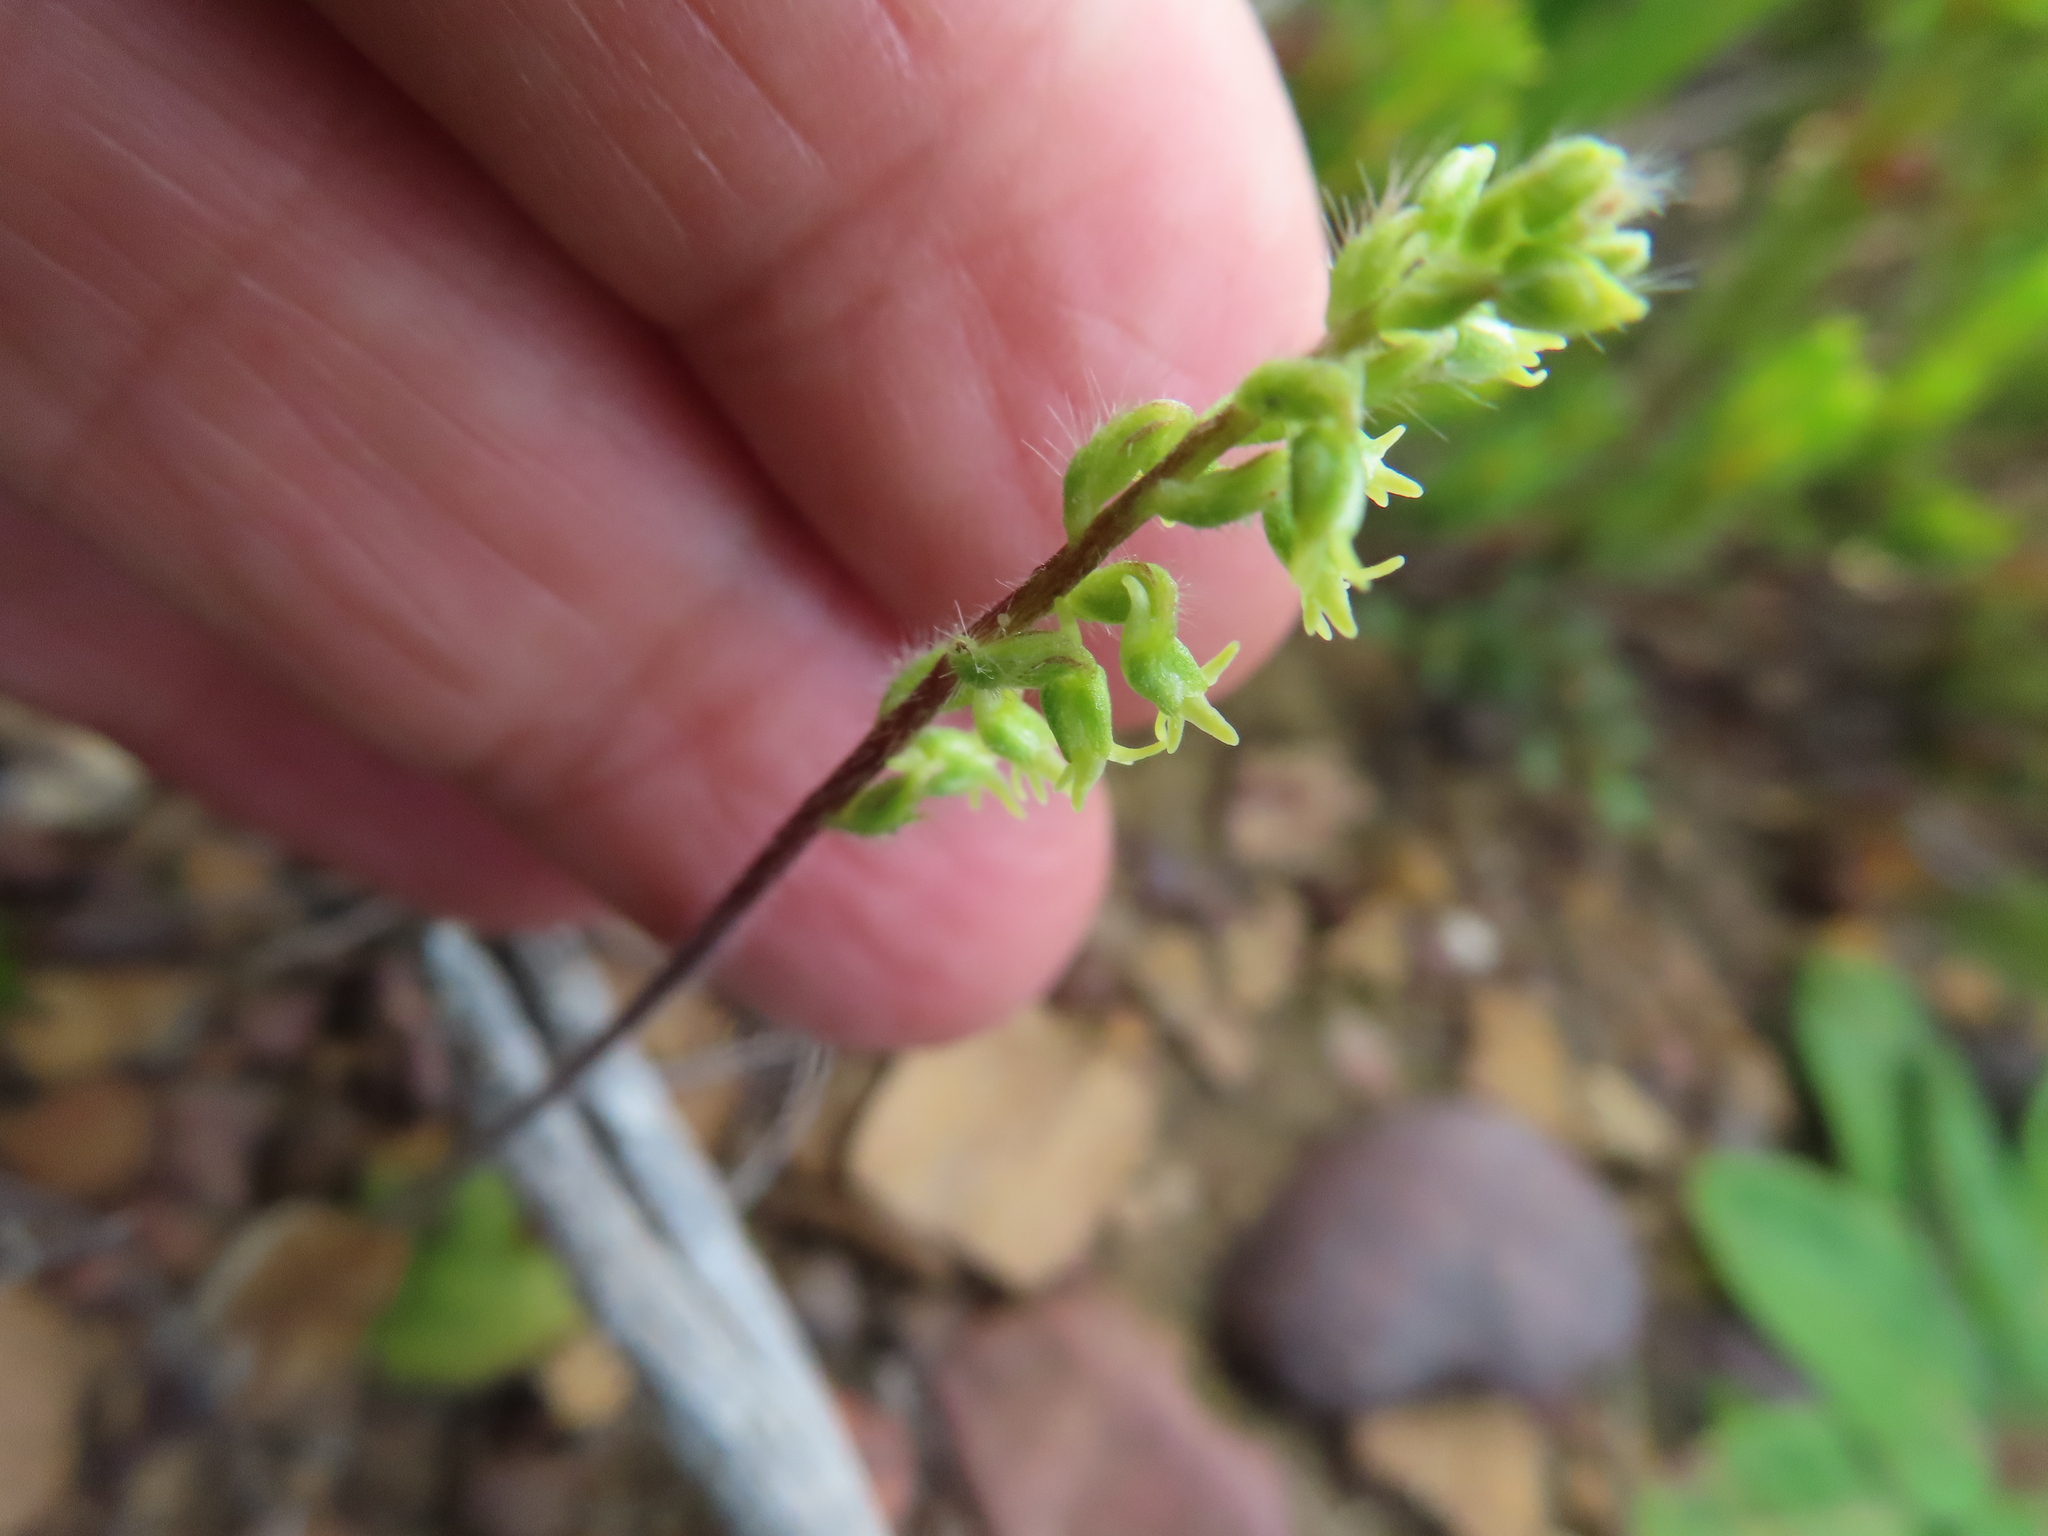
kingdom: Plantae
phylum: Tracheophyta
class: Liliopsida
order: Asparagales
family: Orchidaceae
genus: Holothrix
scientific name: Holothrix villosa
